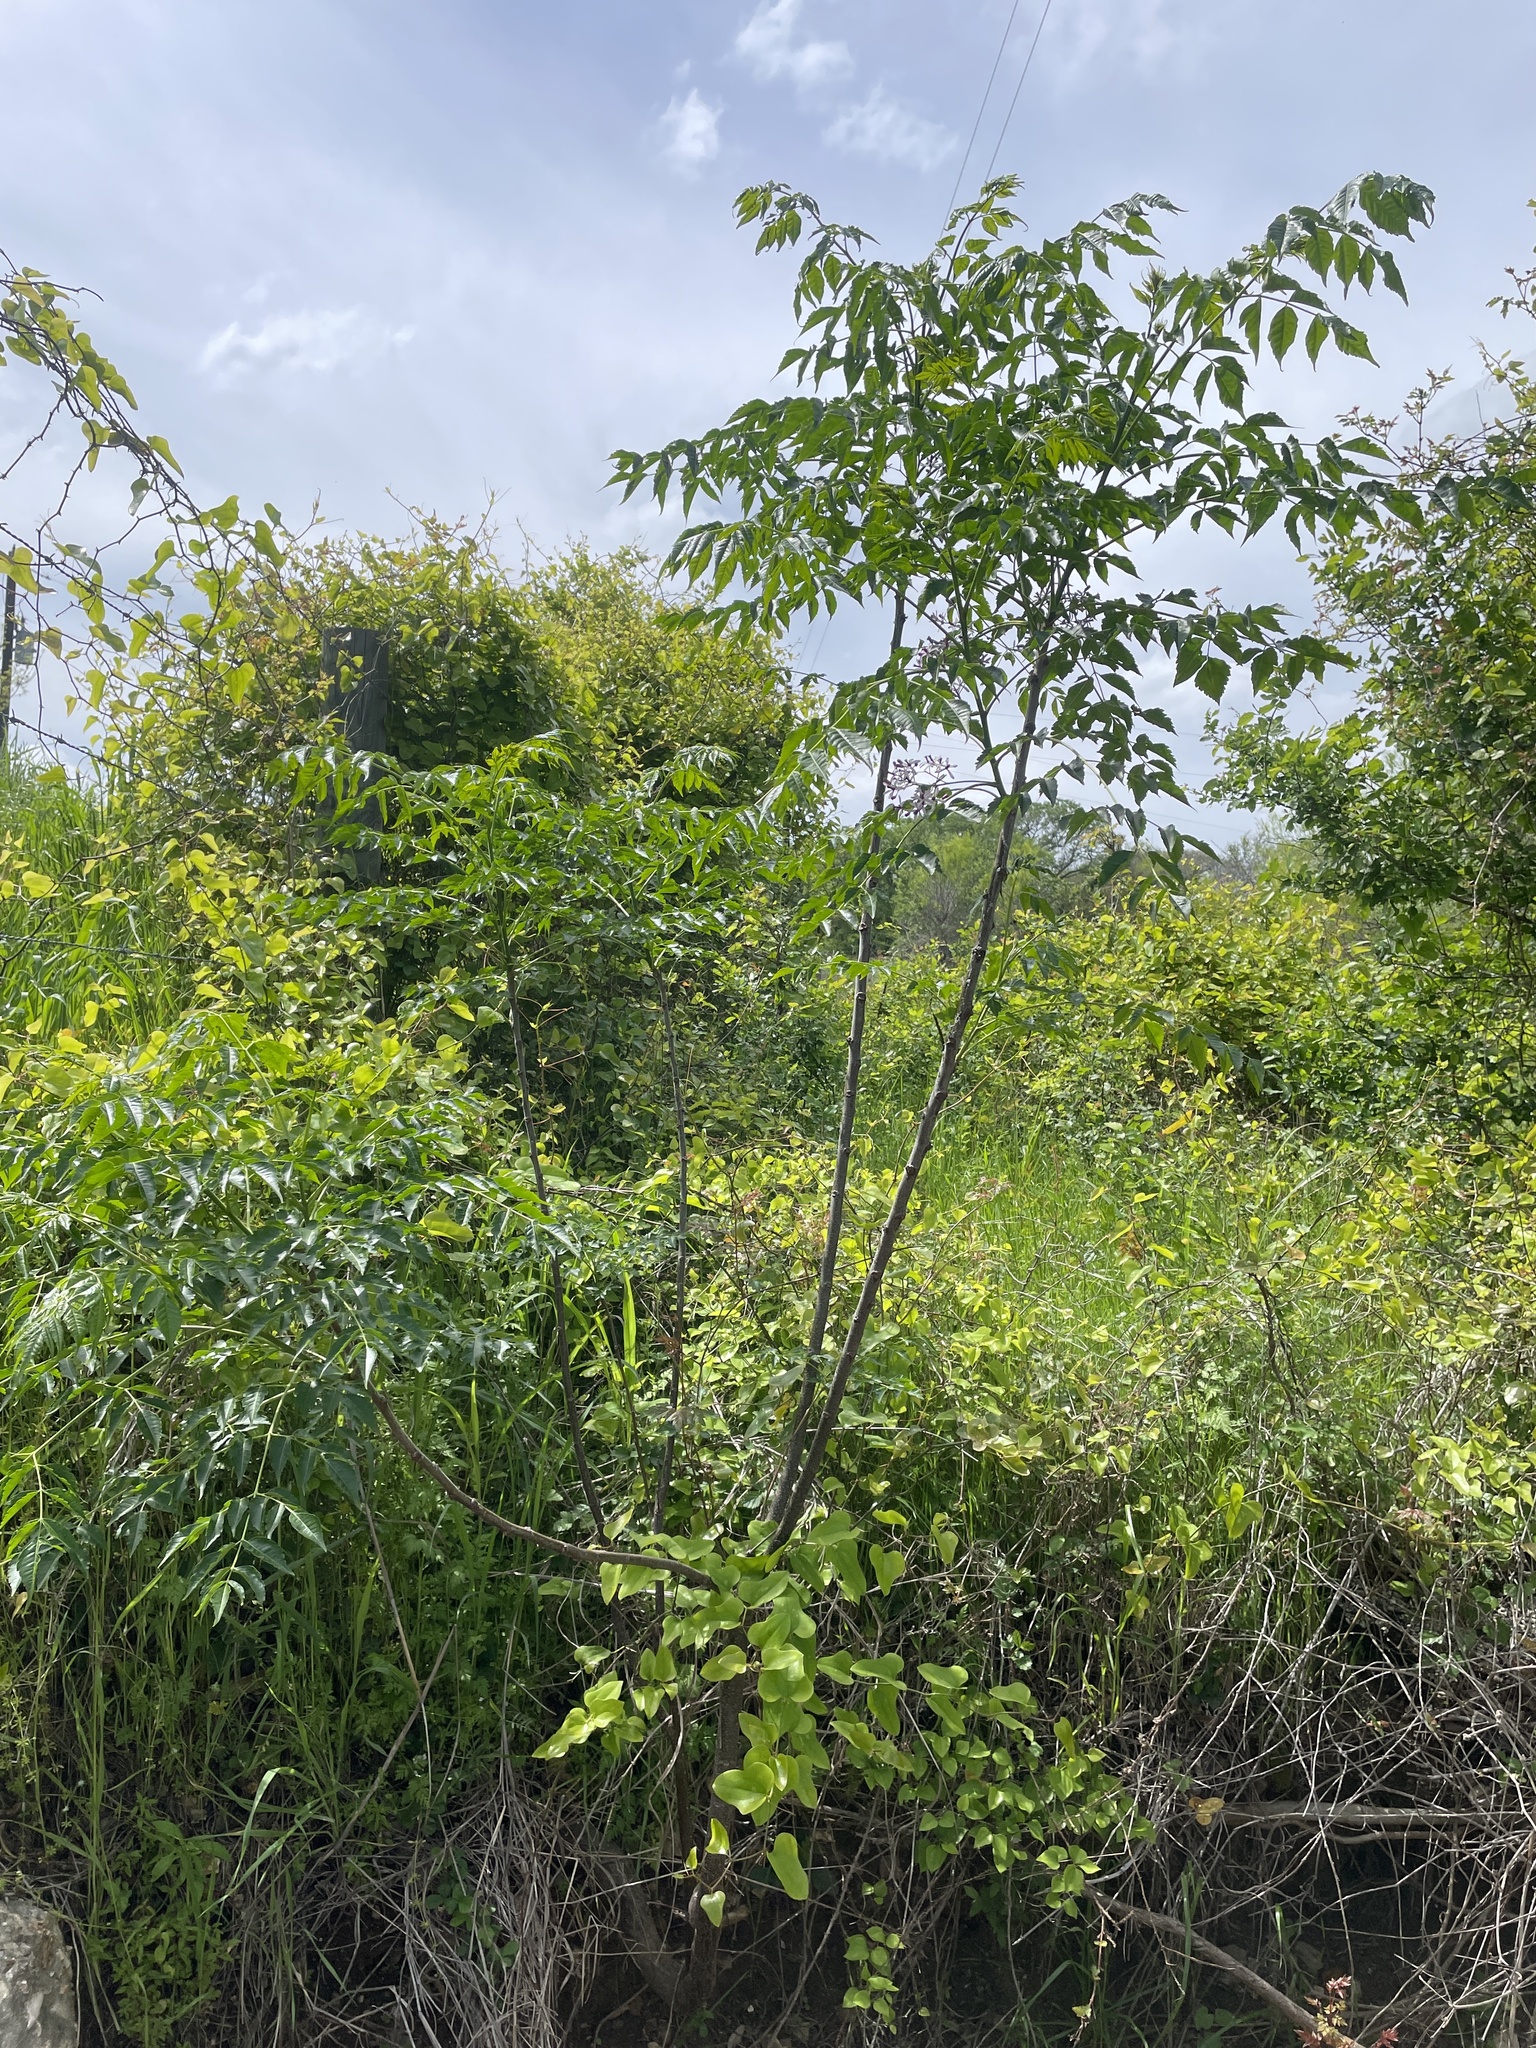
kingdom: Plantae
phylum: Tracheophyta
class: Magnoliopsida
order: Sapindales
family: Meliaceae
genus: Melia
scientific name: Melia azedarach
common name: Chinaberrytree
